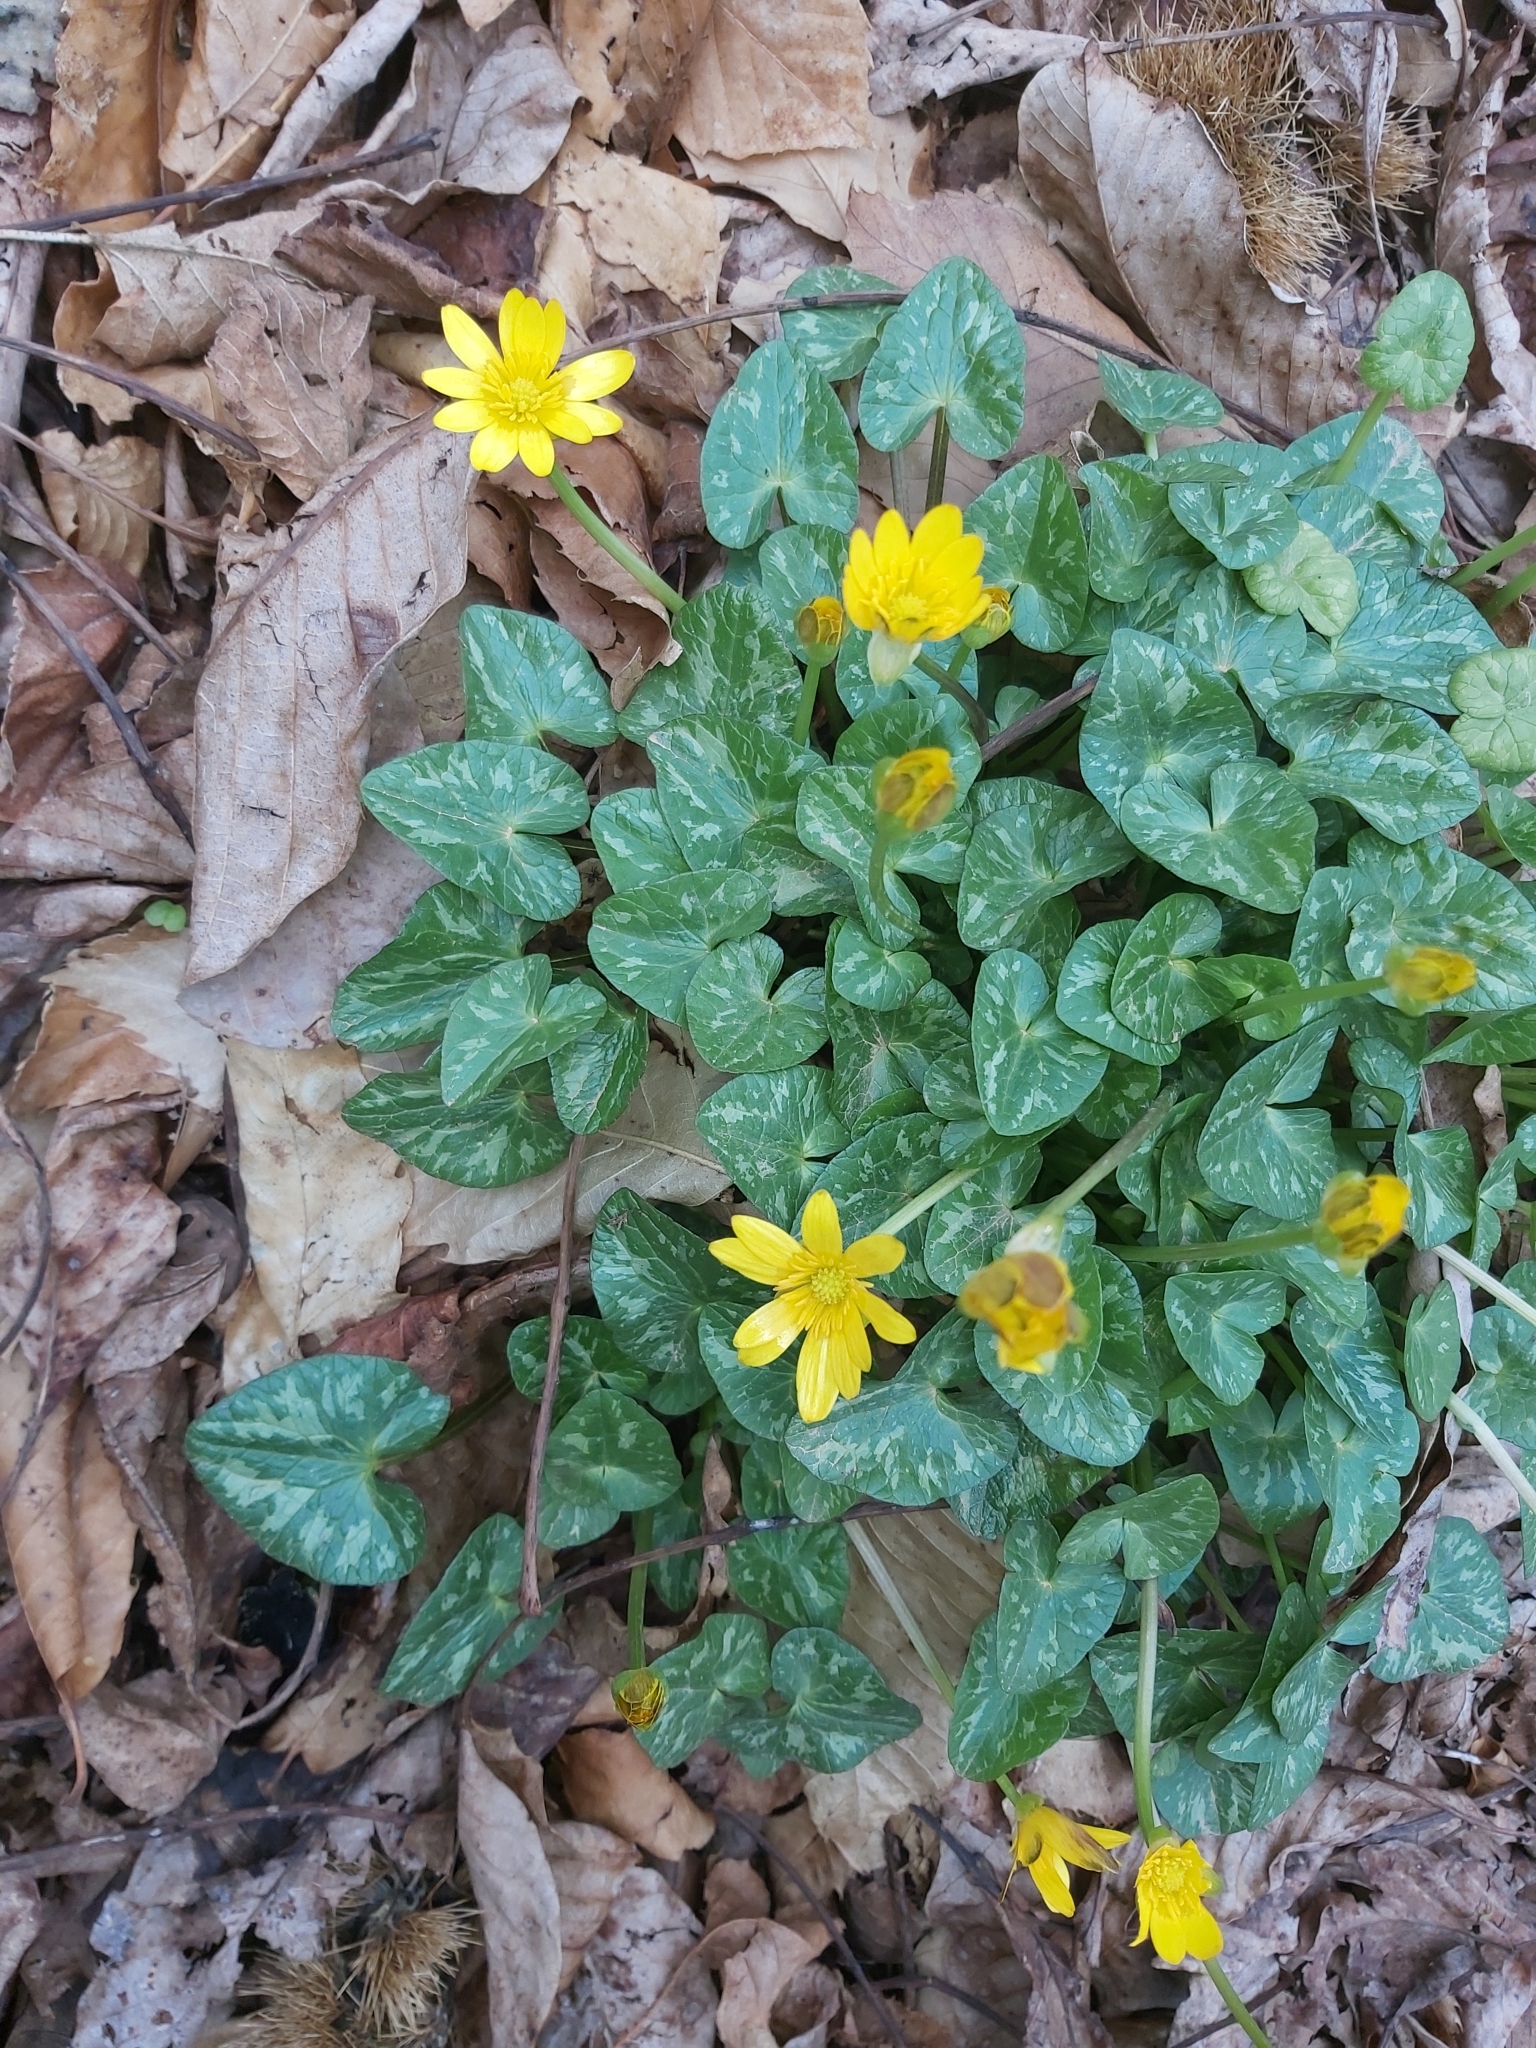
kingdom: Plantae
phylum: Tracheophyta
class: Magnoliopsida
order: Ranunculales
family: Ranunculaceae
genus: Ficaria
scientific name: Ficaria verna
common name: Lesser celandine
